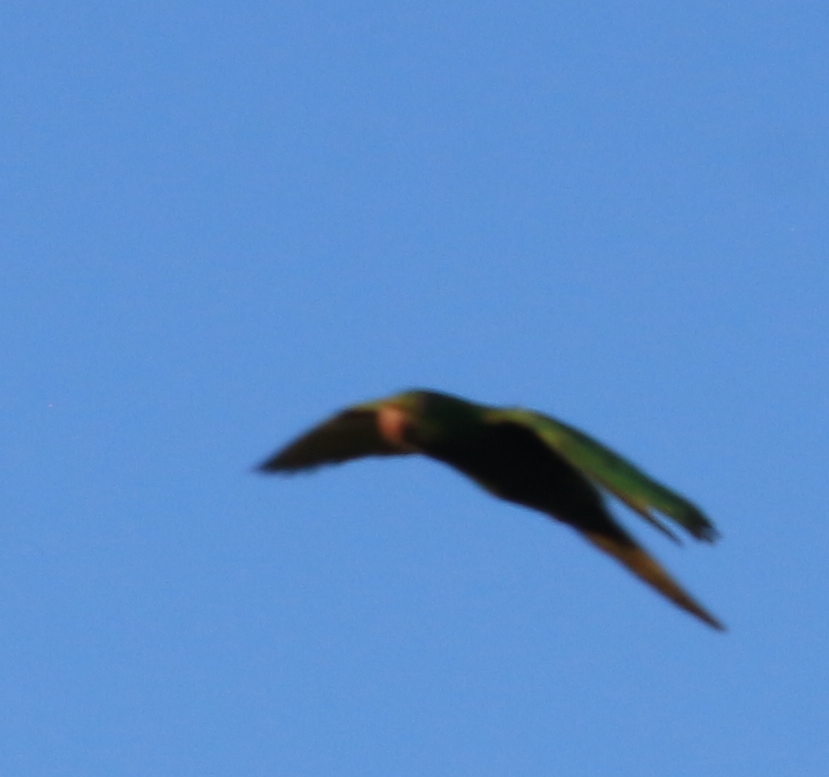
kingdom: Animalia
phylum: Chordata
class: Aves
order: Psittaciformes
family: Psittacidae
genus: Aratinga
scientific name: Aratinga leucophthalma
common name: White-eyed parakeet
